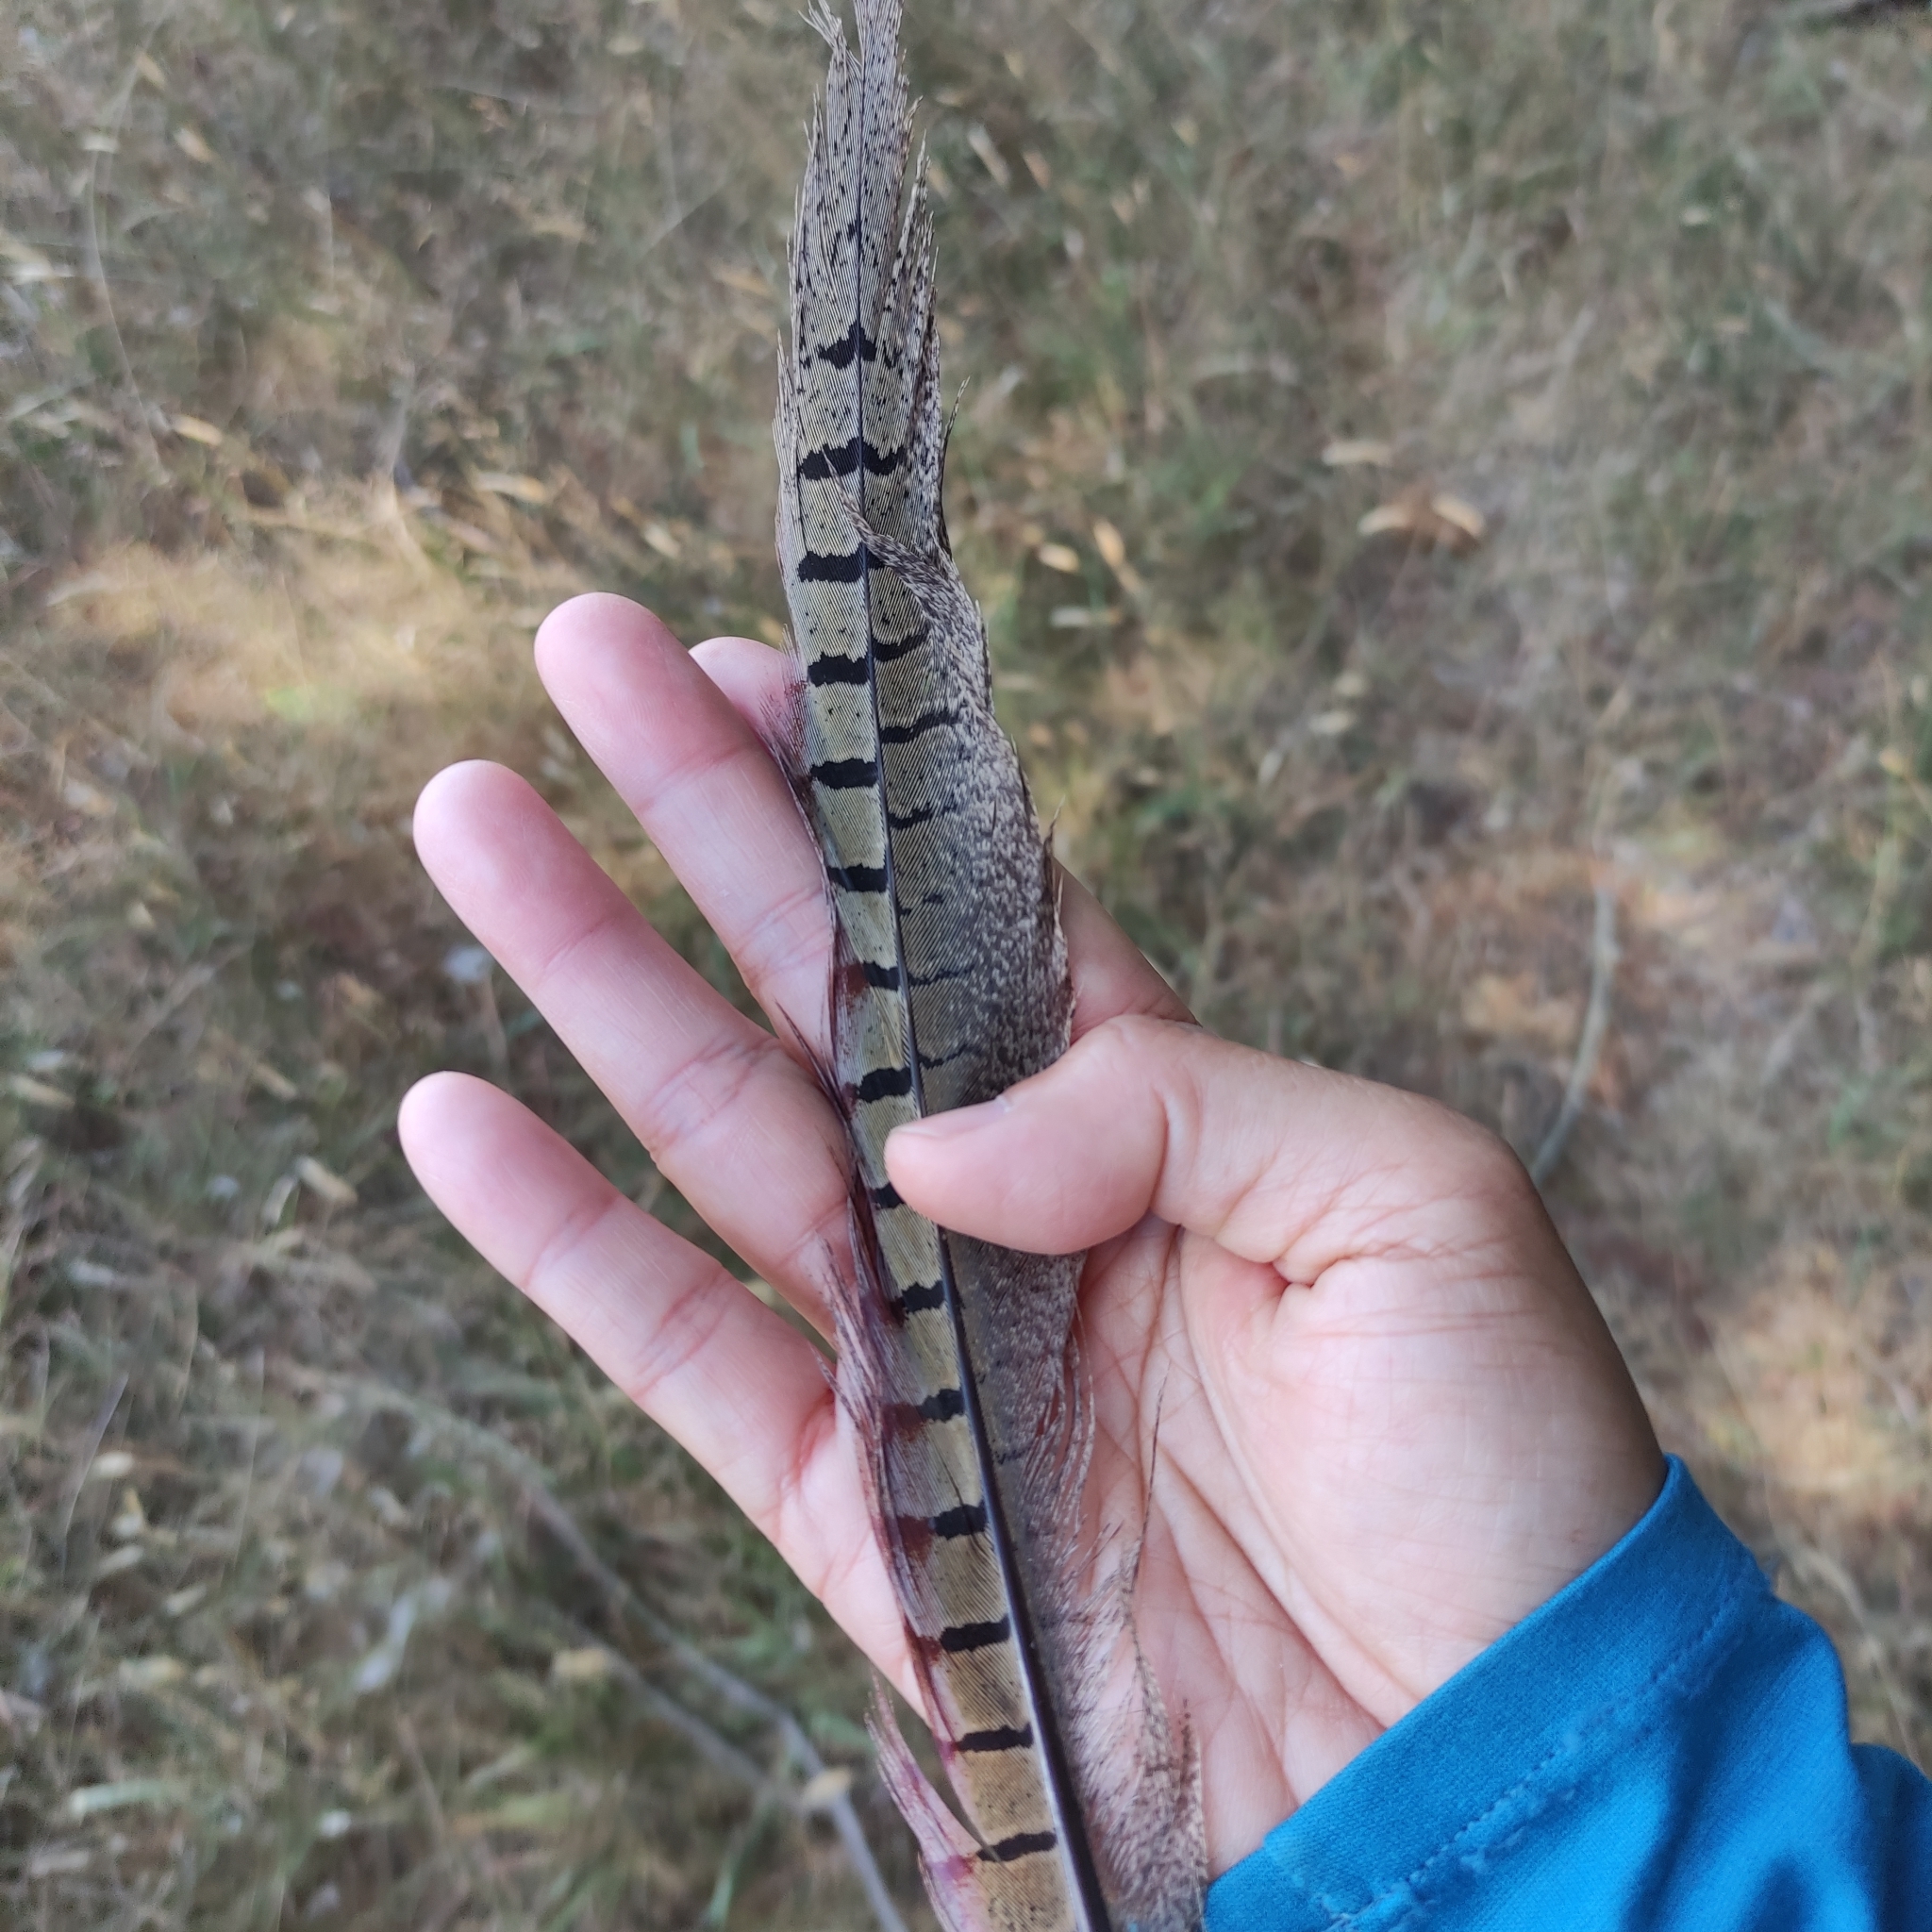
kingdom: Animalia
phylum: Chordata
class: Aves
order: Galliformes
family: Phasianidae
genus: Phasianus
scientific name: Phasianus colchicus
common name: Common pheasant
